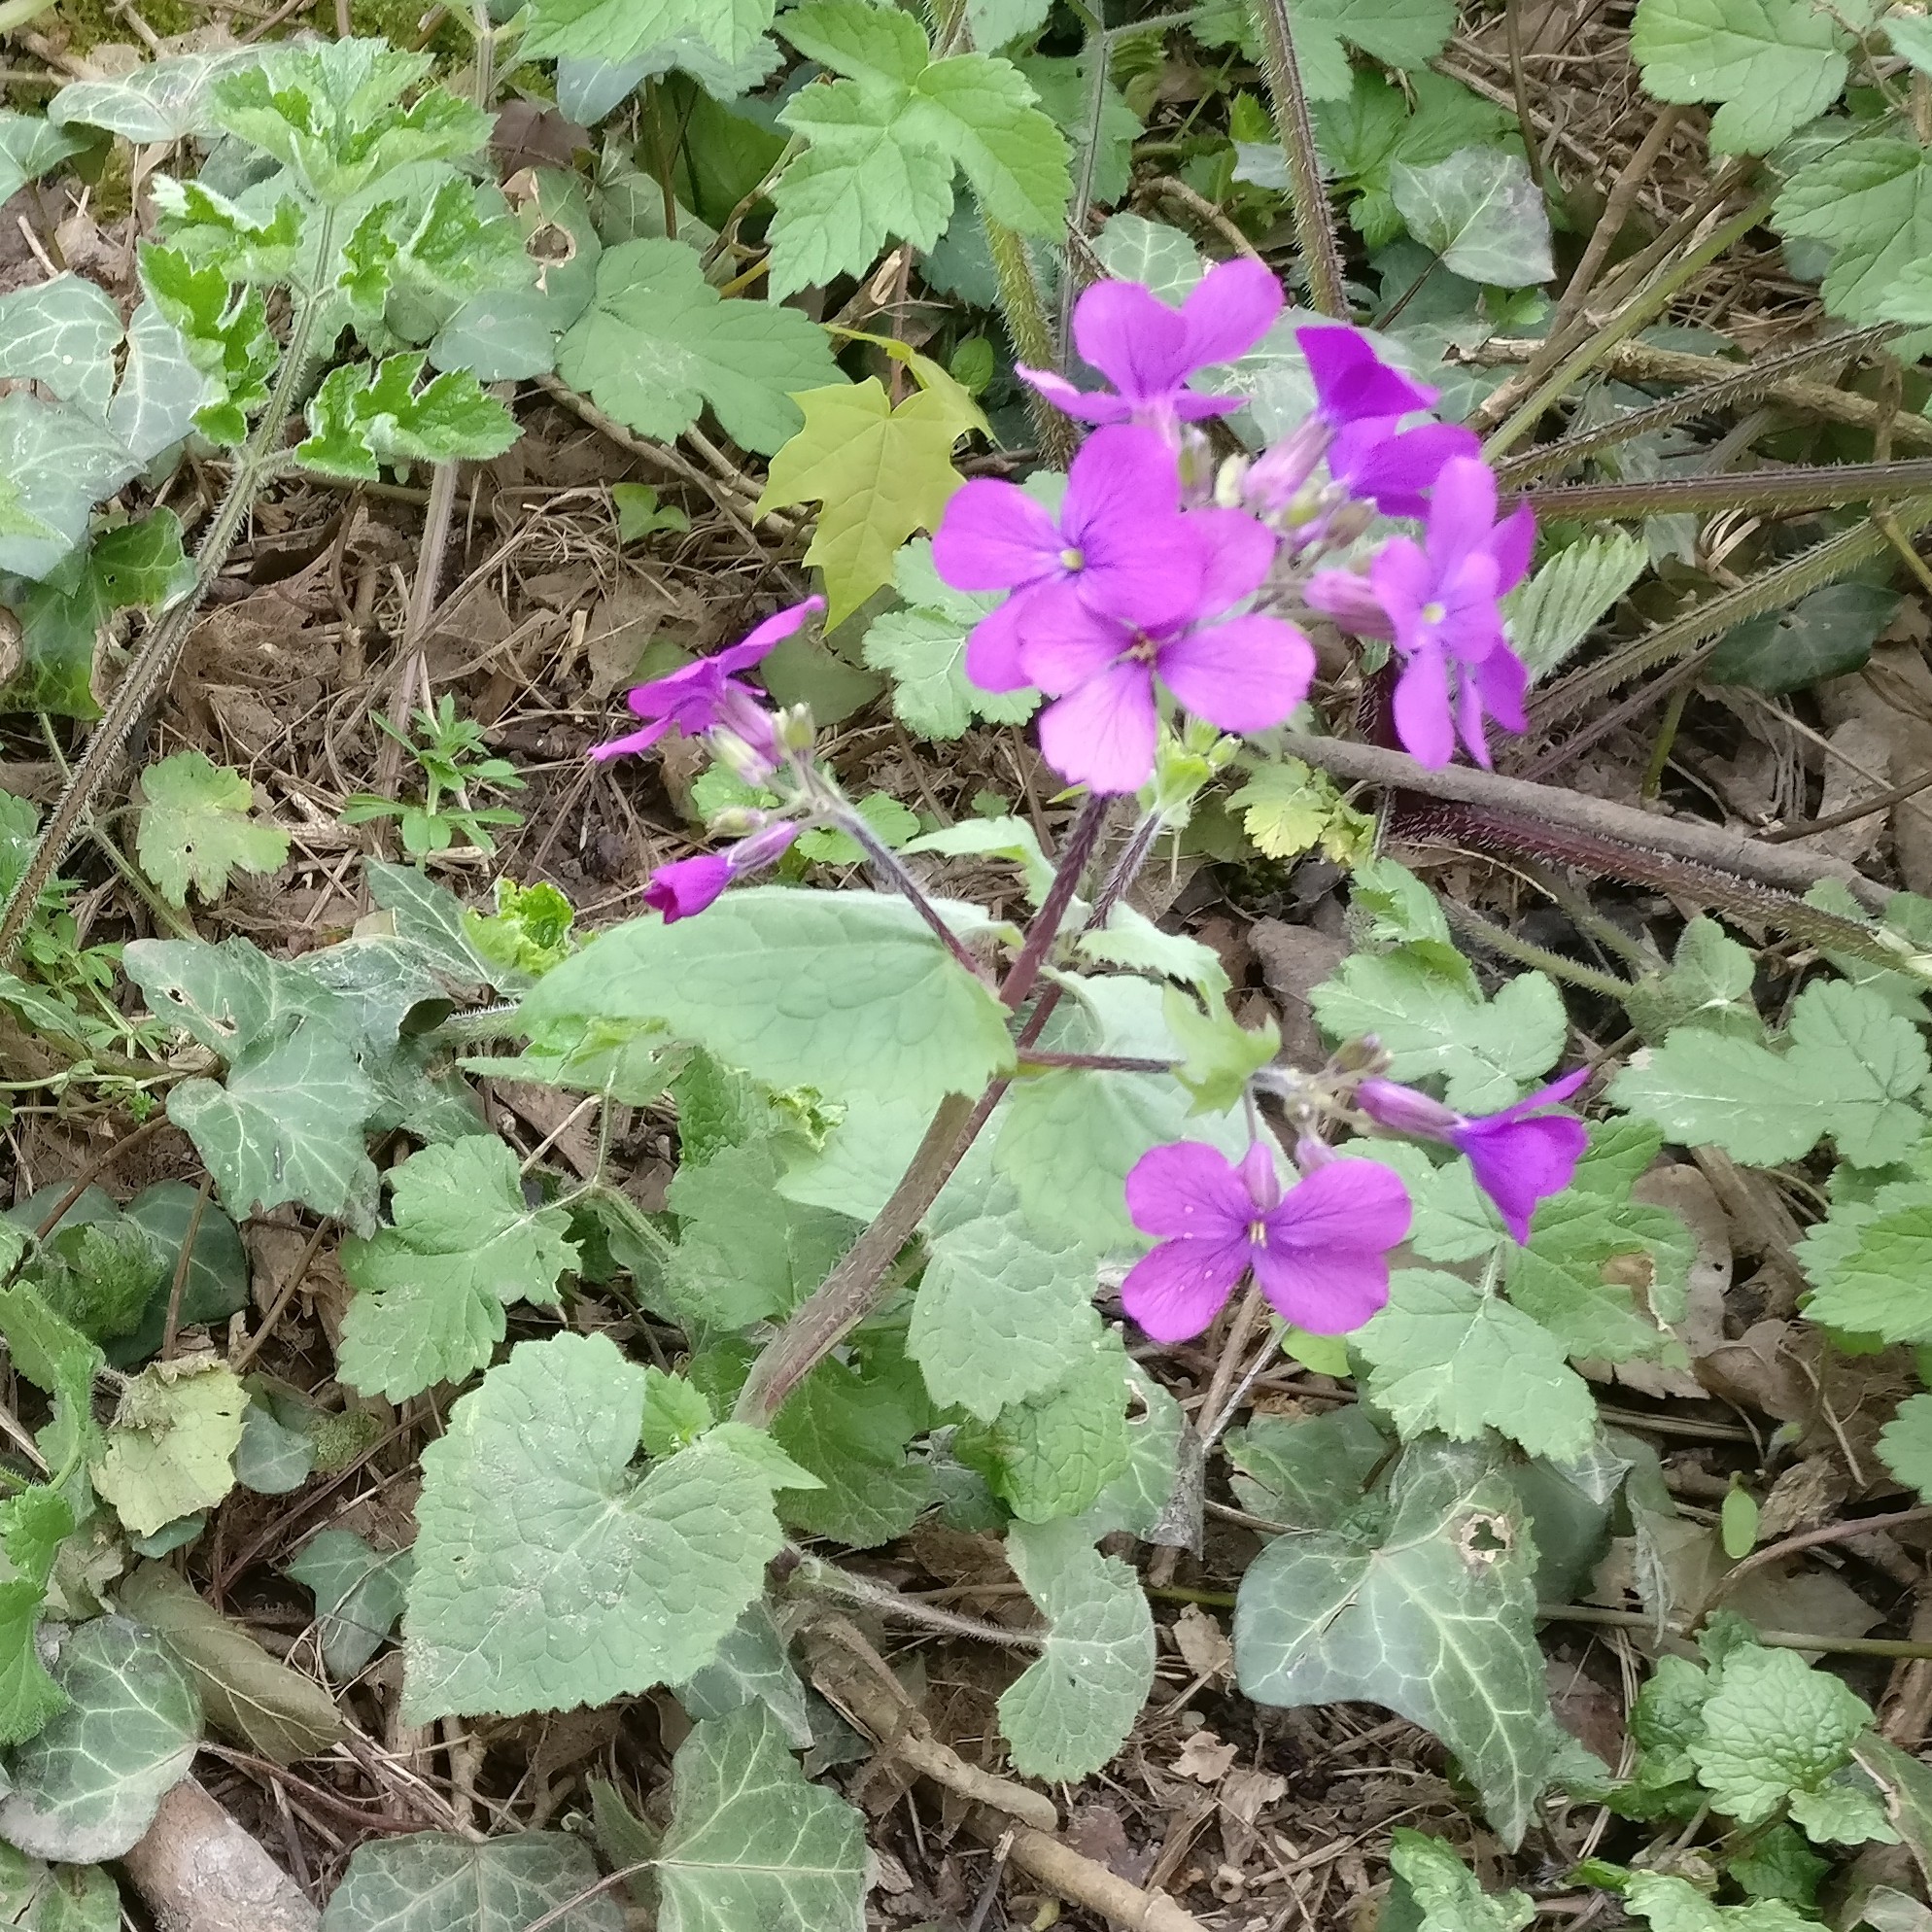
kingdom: Plantae
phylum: Tracheophyta
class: Magnoliopsida
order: Brassicales
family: Brassicaceae
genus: Lunaria
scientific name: Lunaria annua
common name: Honesty
